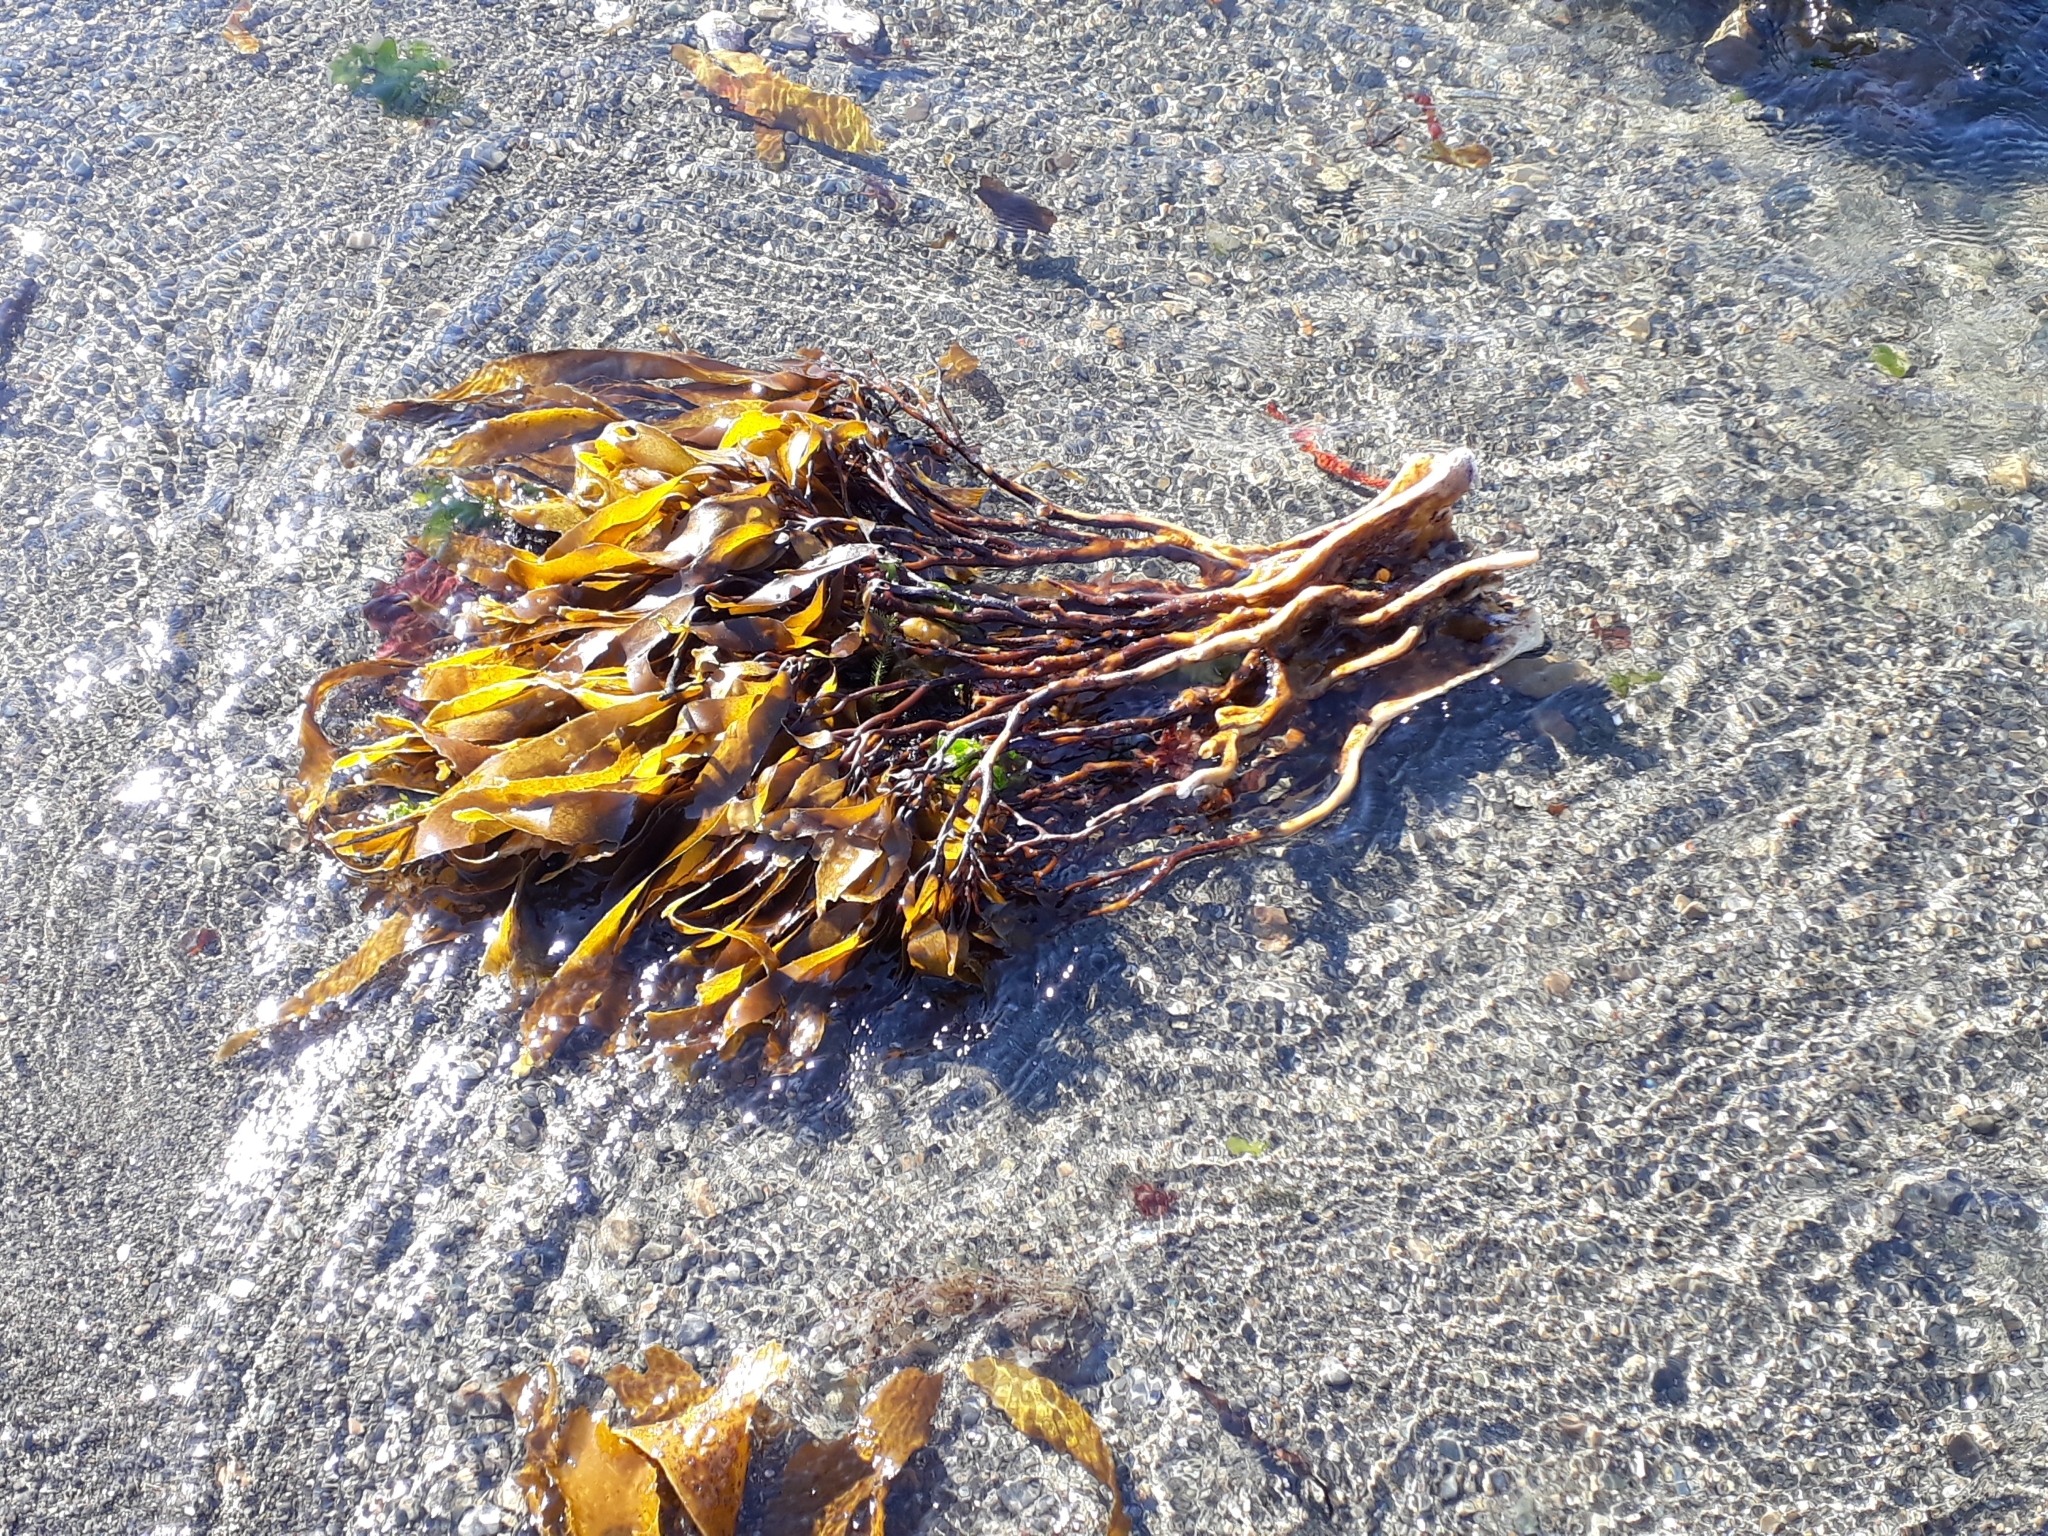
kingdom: Chromista
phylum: Ochrophyta
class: Phaeophyceae
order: Laminariales
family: Lessoniaceae
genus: Lessonia
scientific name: Lessonia variegata
